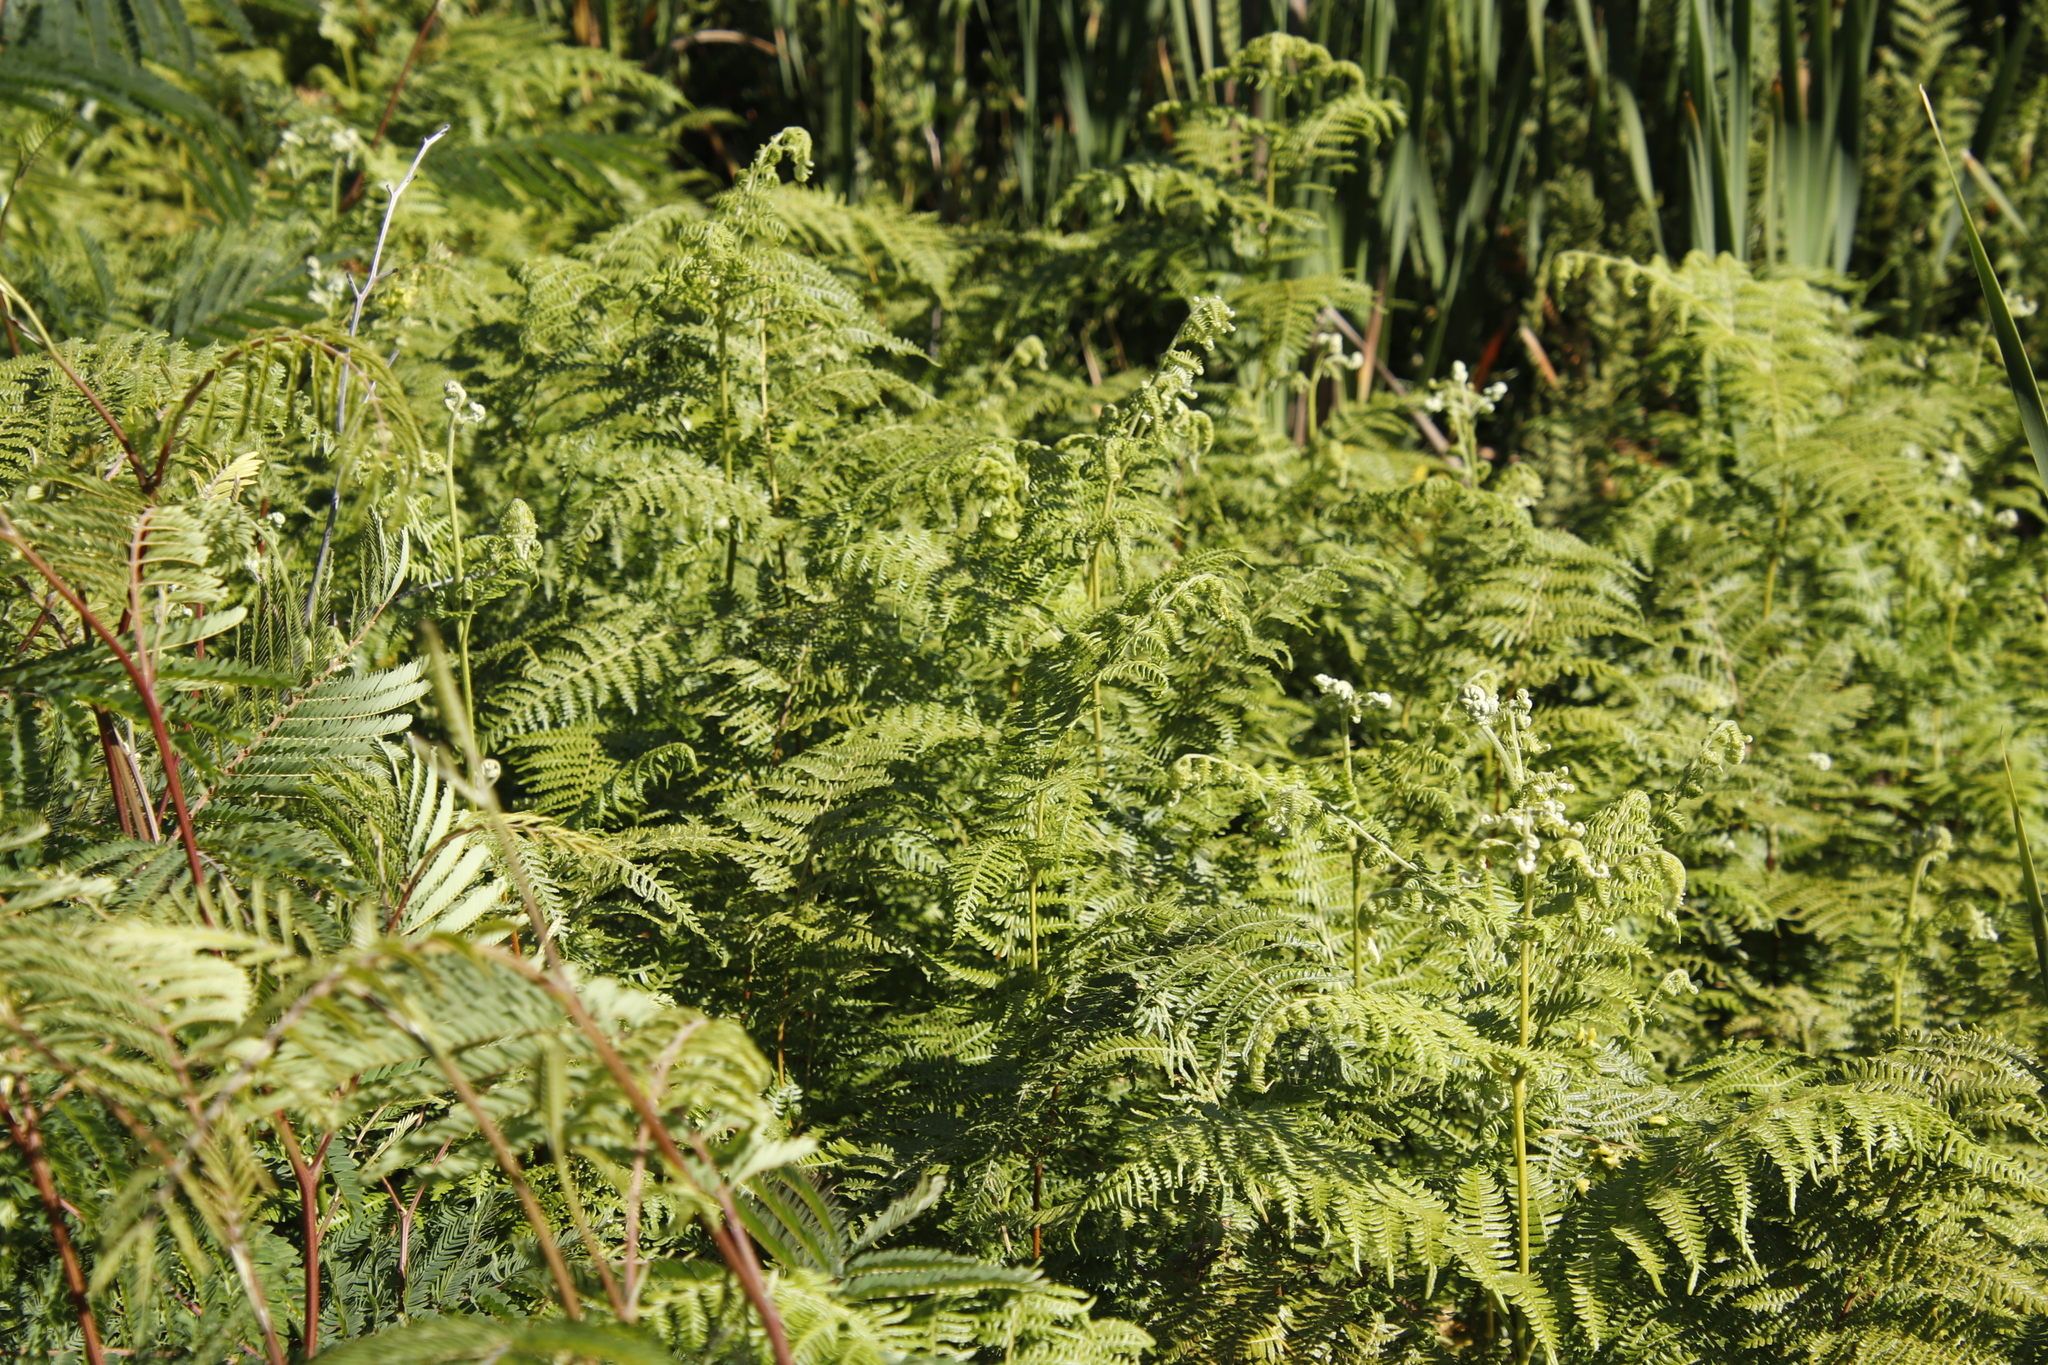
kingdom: Plantae
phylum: Tracheophyta
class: Polypodiopsida
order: Polypodiales
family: Dennstaedtiaceae
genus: Pteridium
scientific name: Pteridium aquilinum
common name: Bracken
